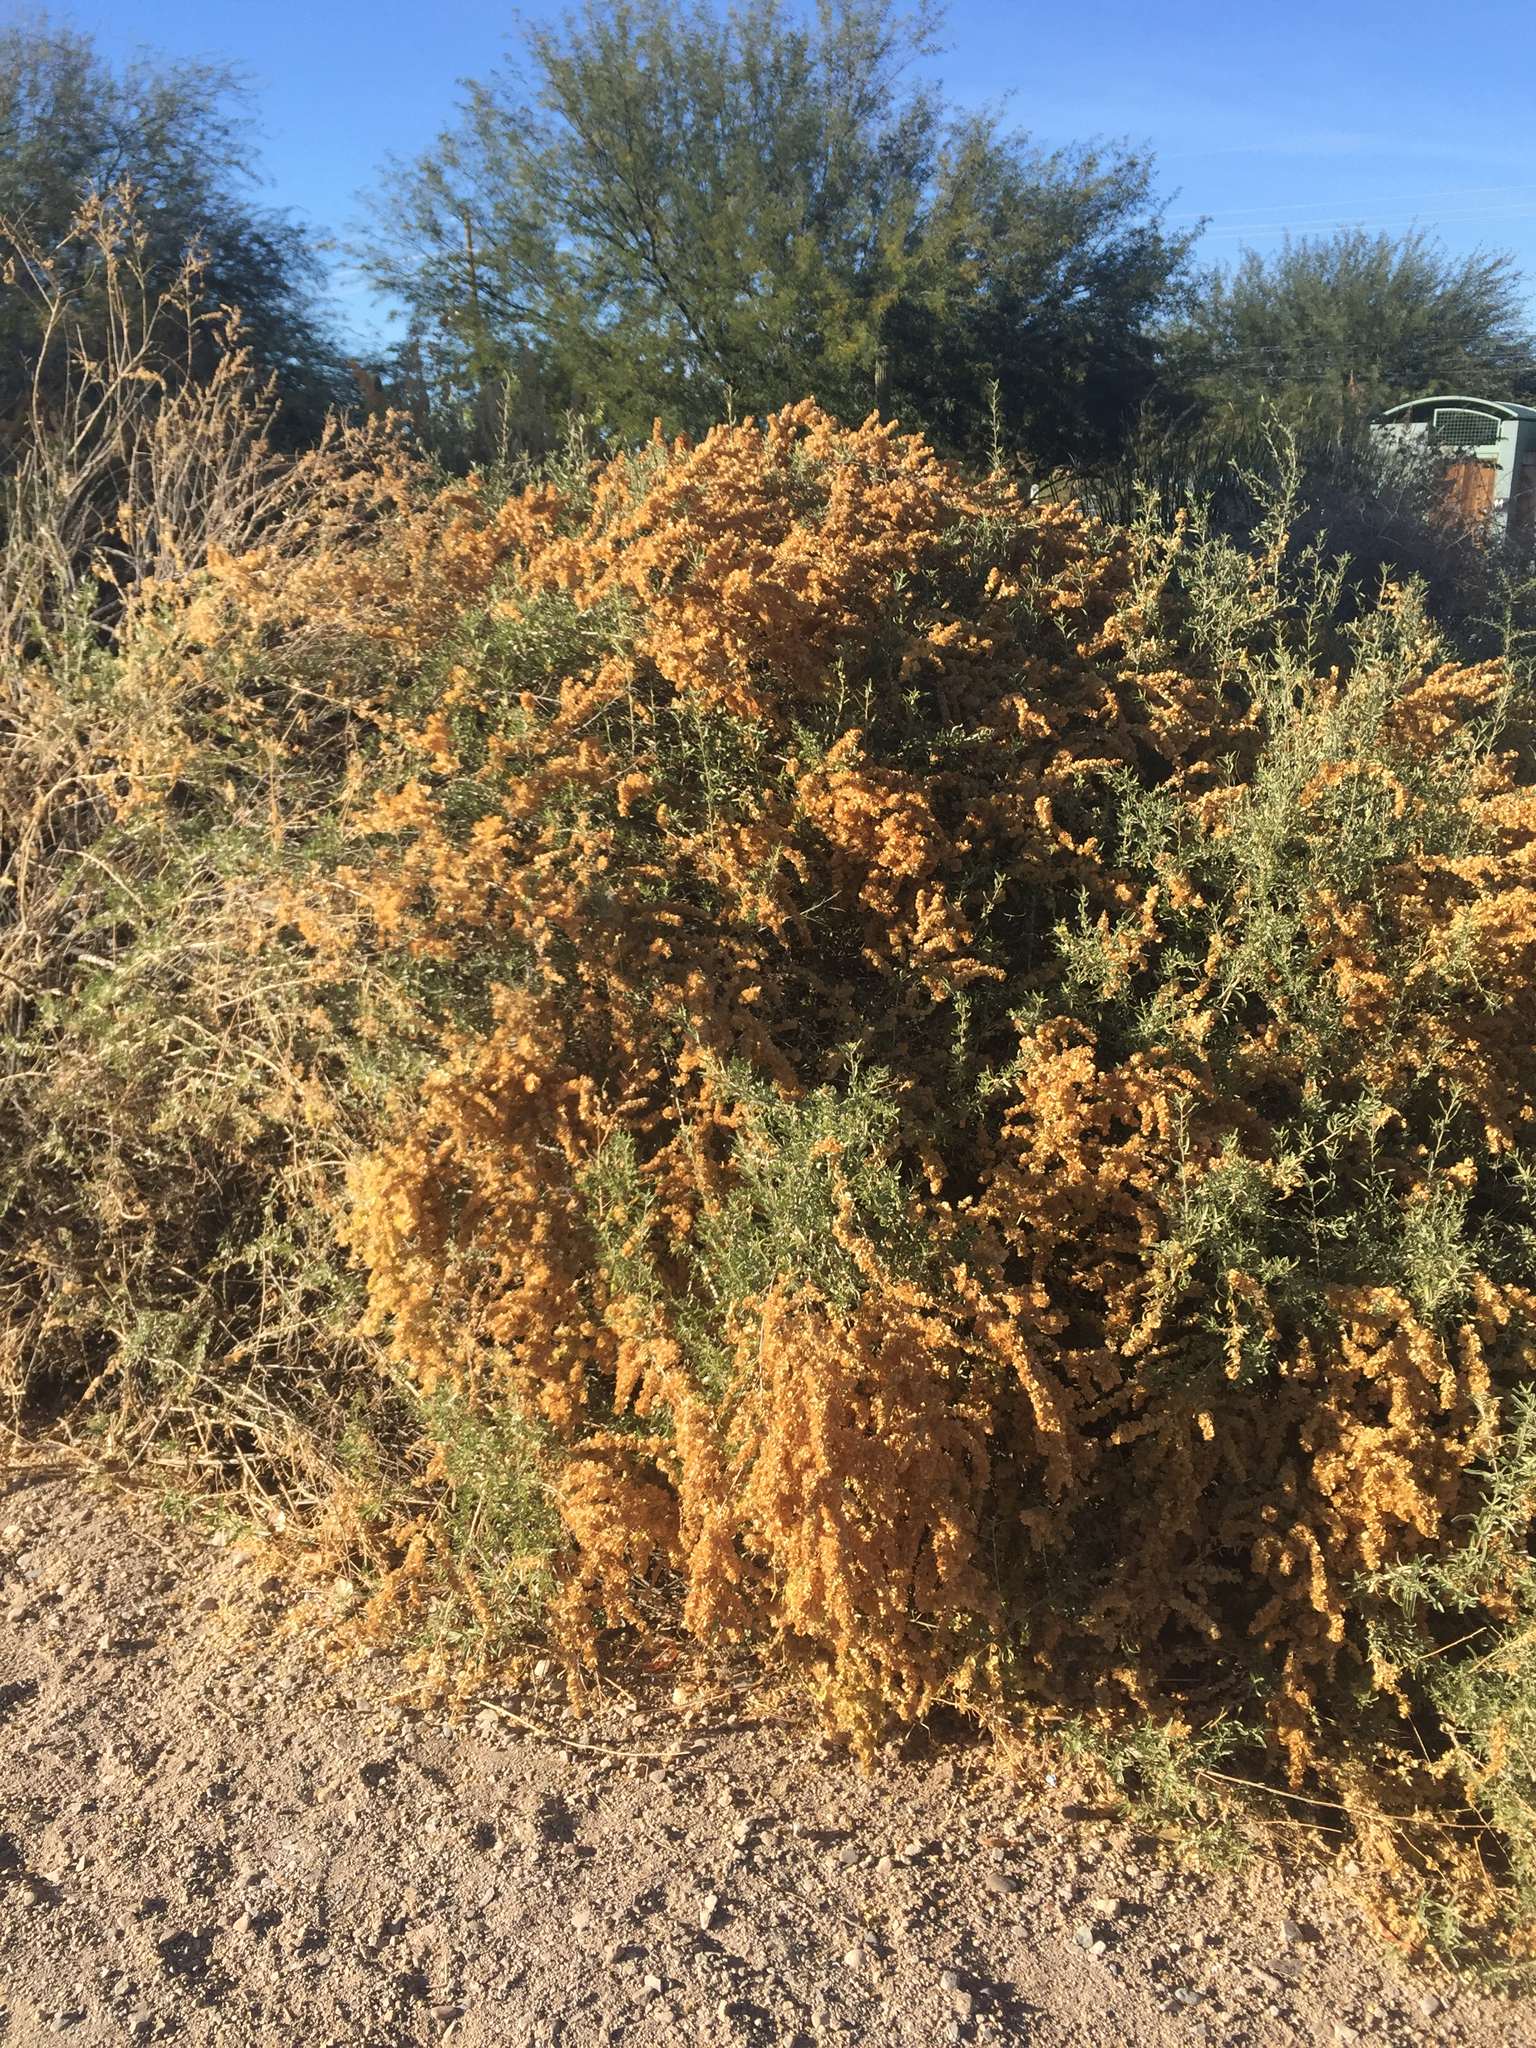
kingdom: Plantae
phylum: Tracheophyta
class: Magnoliopsida
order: Caryophyllales
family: Amaranthaceae
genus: Atriplex
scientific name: Atriplex canescens
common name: Four-wing saltbush
